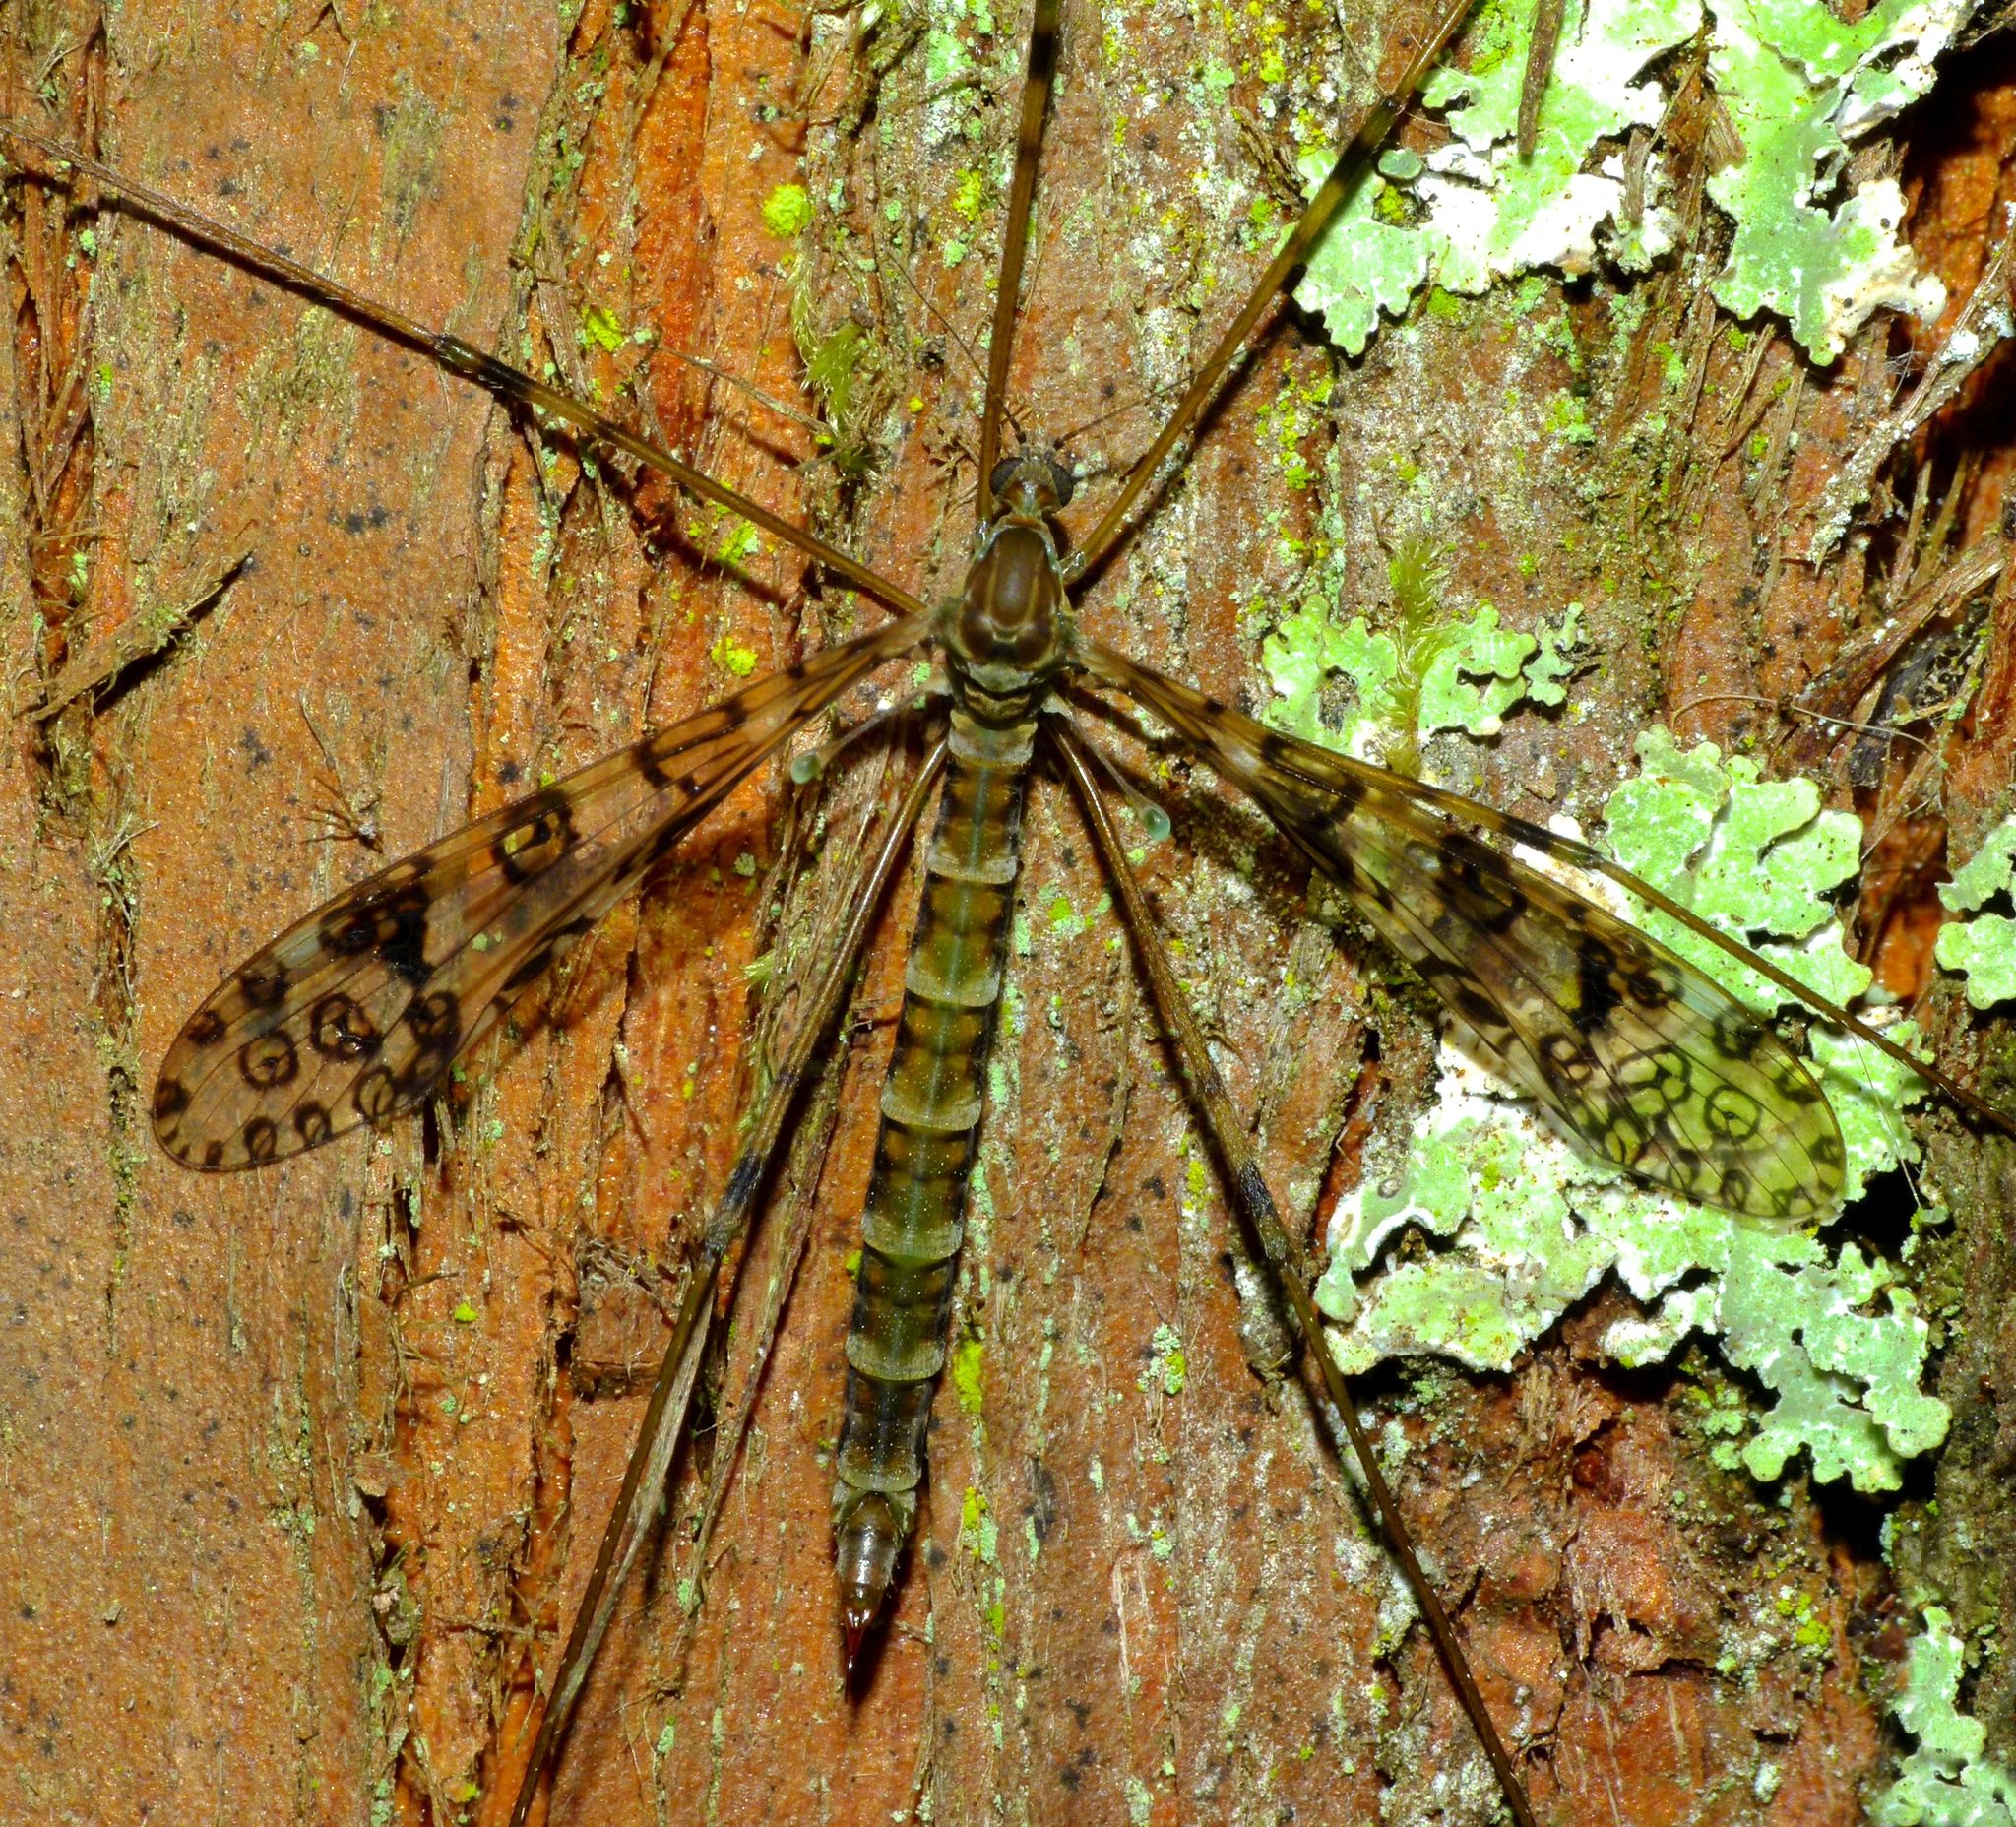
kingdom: Animalia
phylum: Arthropoda
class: Insecta
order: Diptera
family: Limoniidae
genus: Austrolimnophila
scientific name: Austrolimnophila argus
